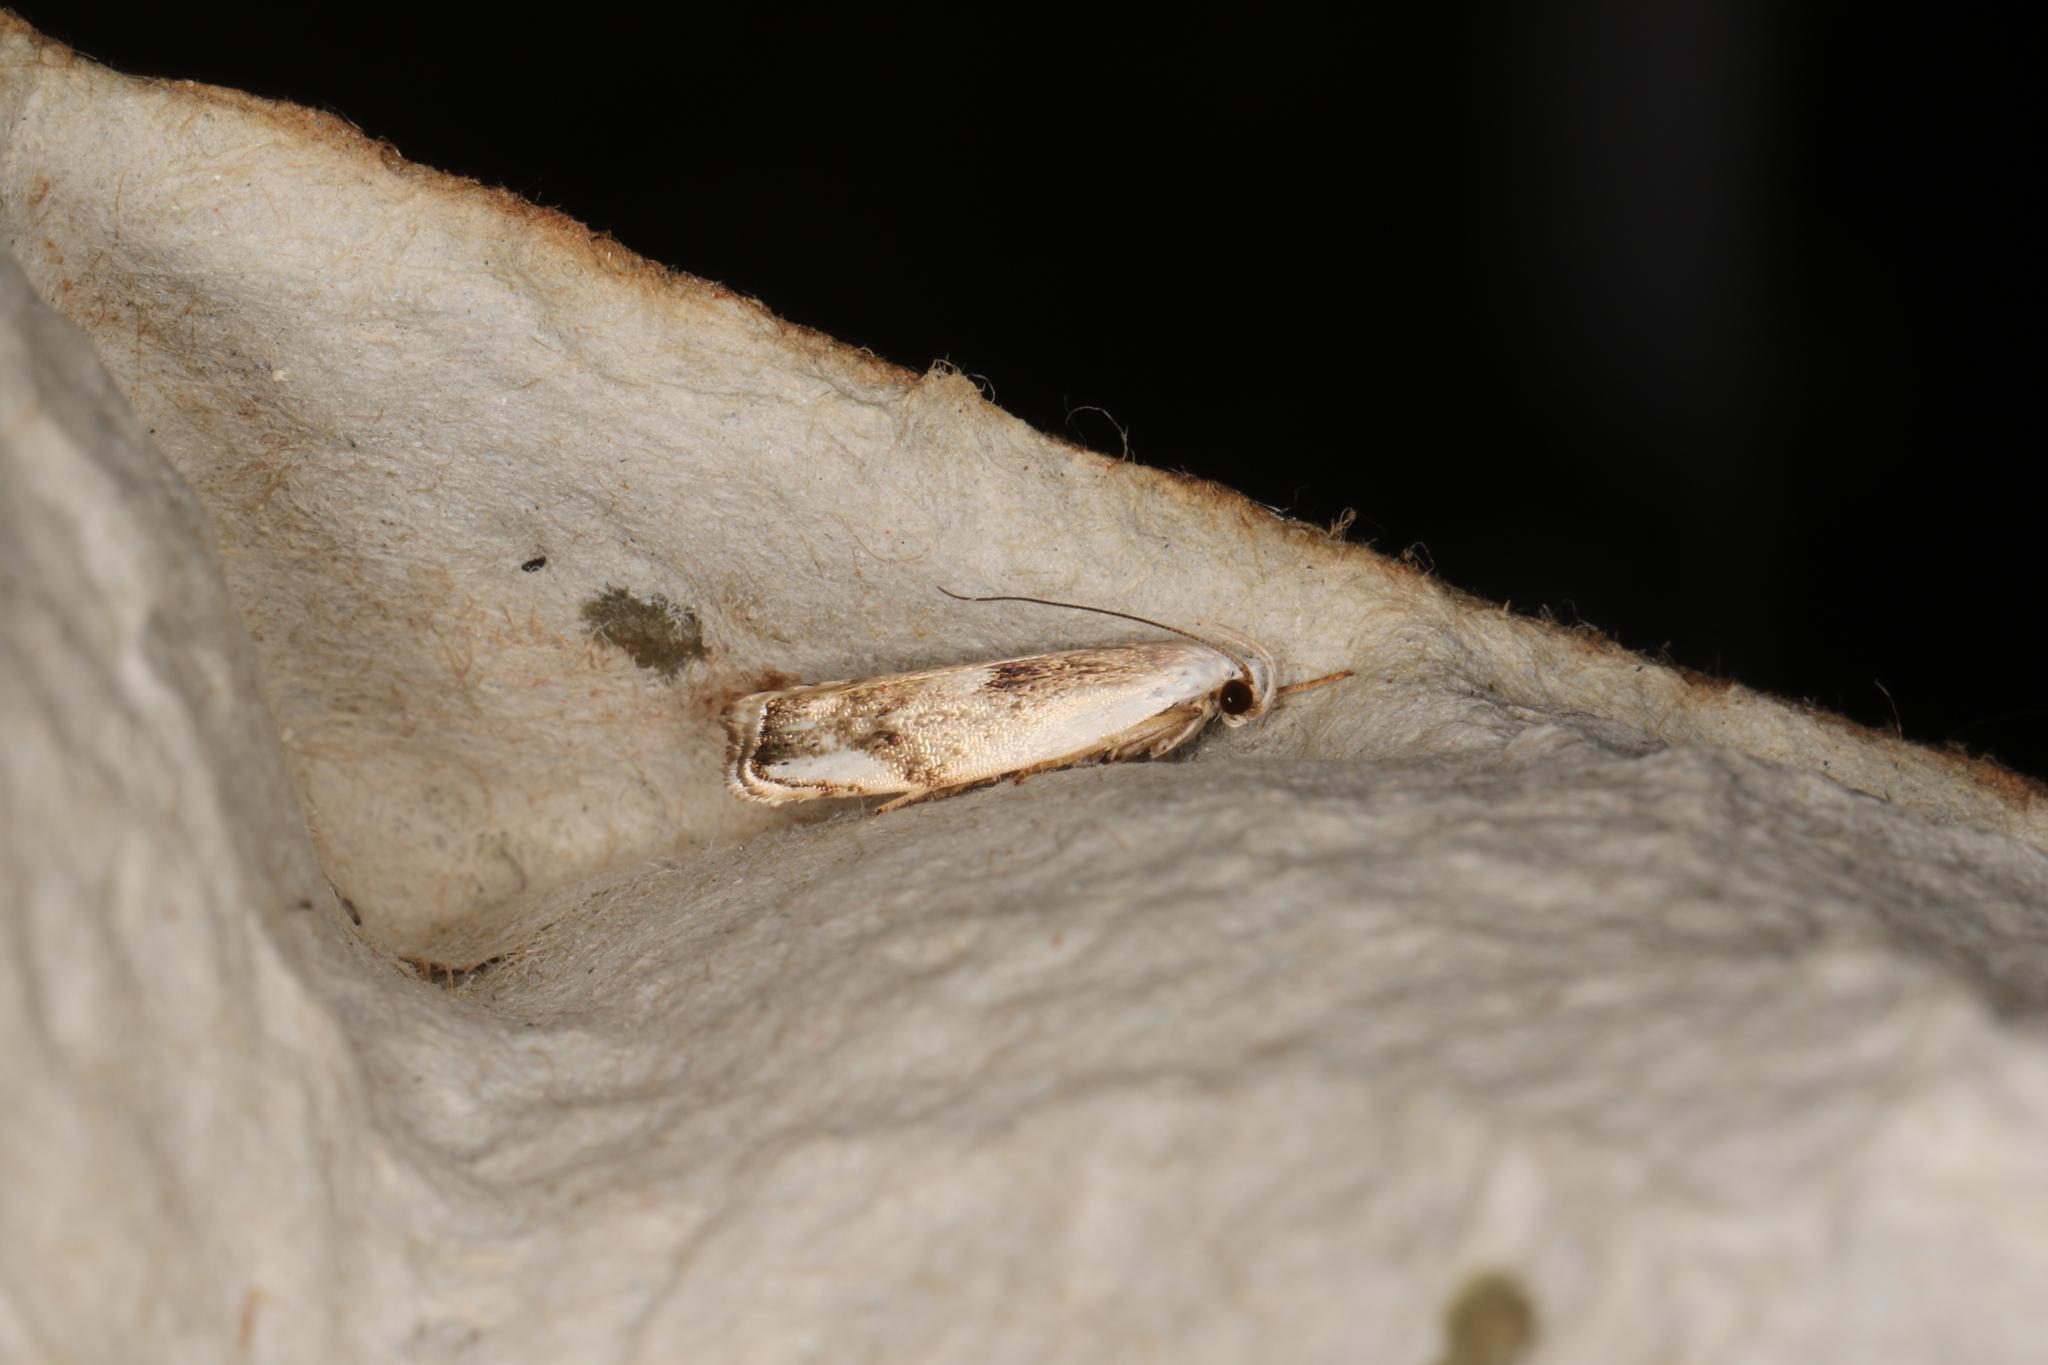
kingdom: Animalia
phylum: Arthropoda
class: Insecta
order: Lepidoptera
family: Xyloryctidae
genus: Plectophila
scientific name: Plectophila discalis
